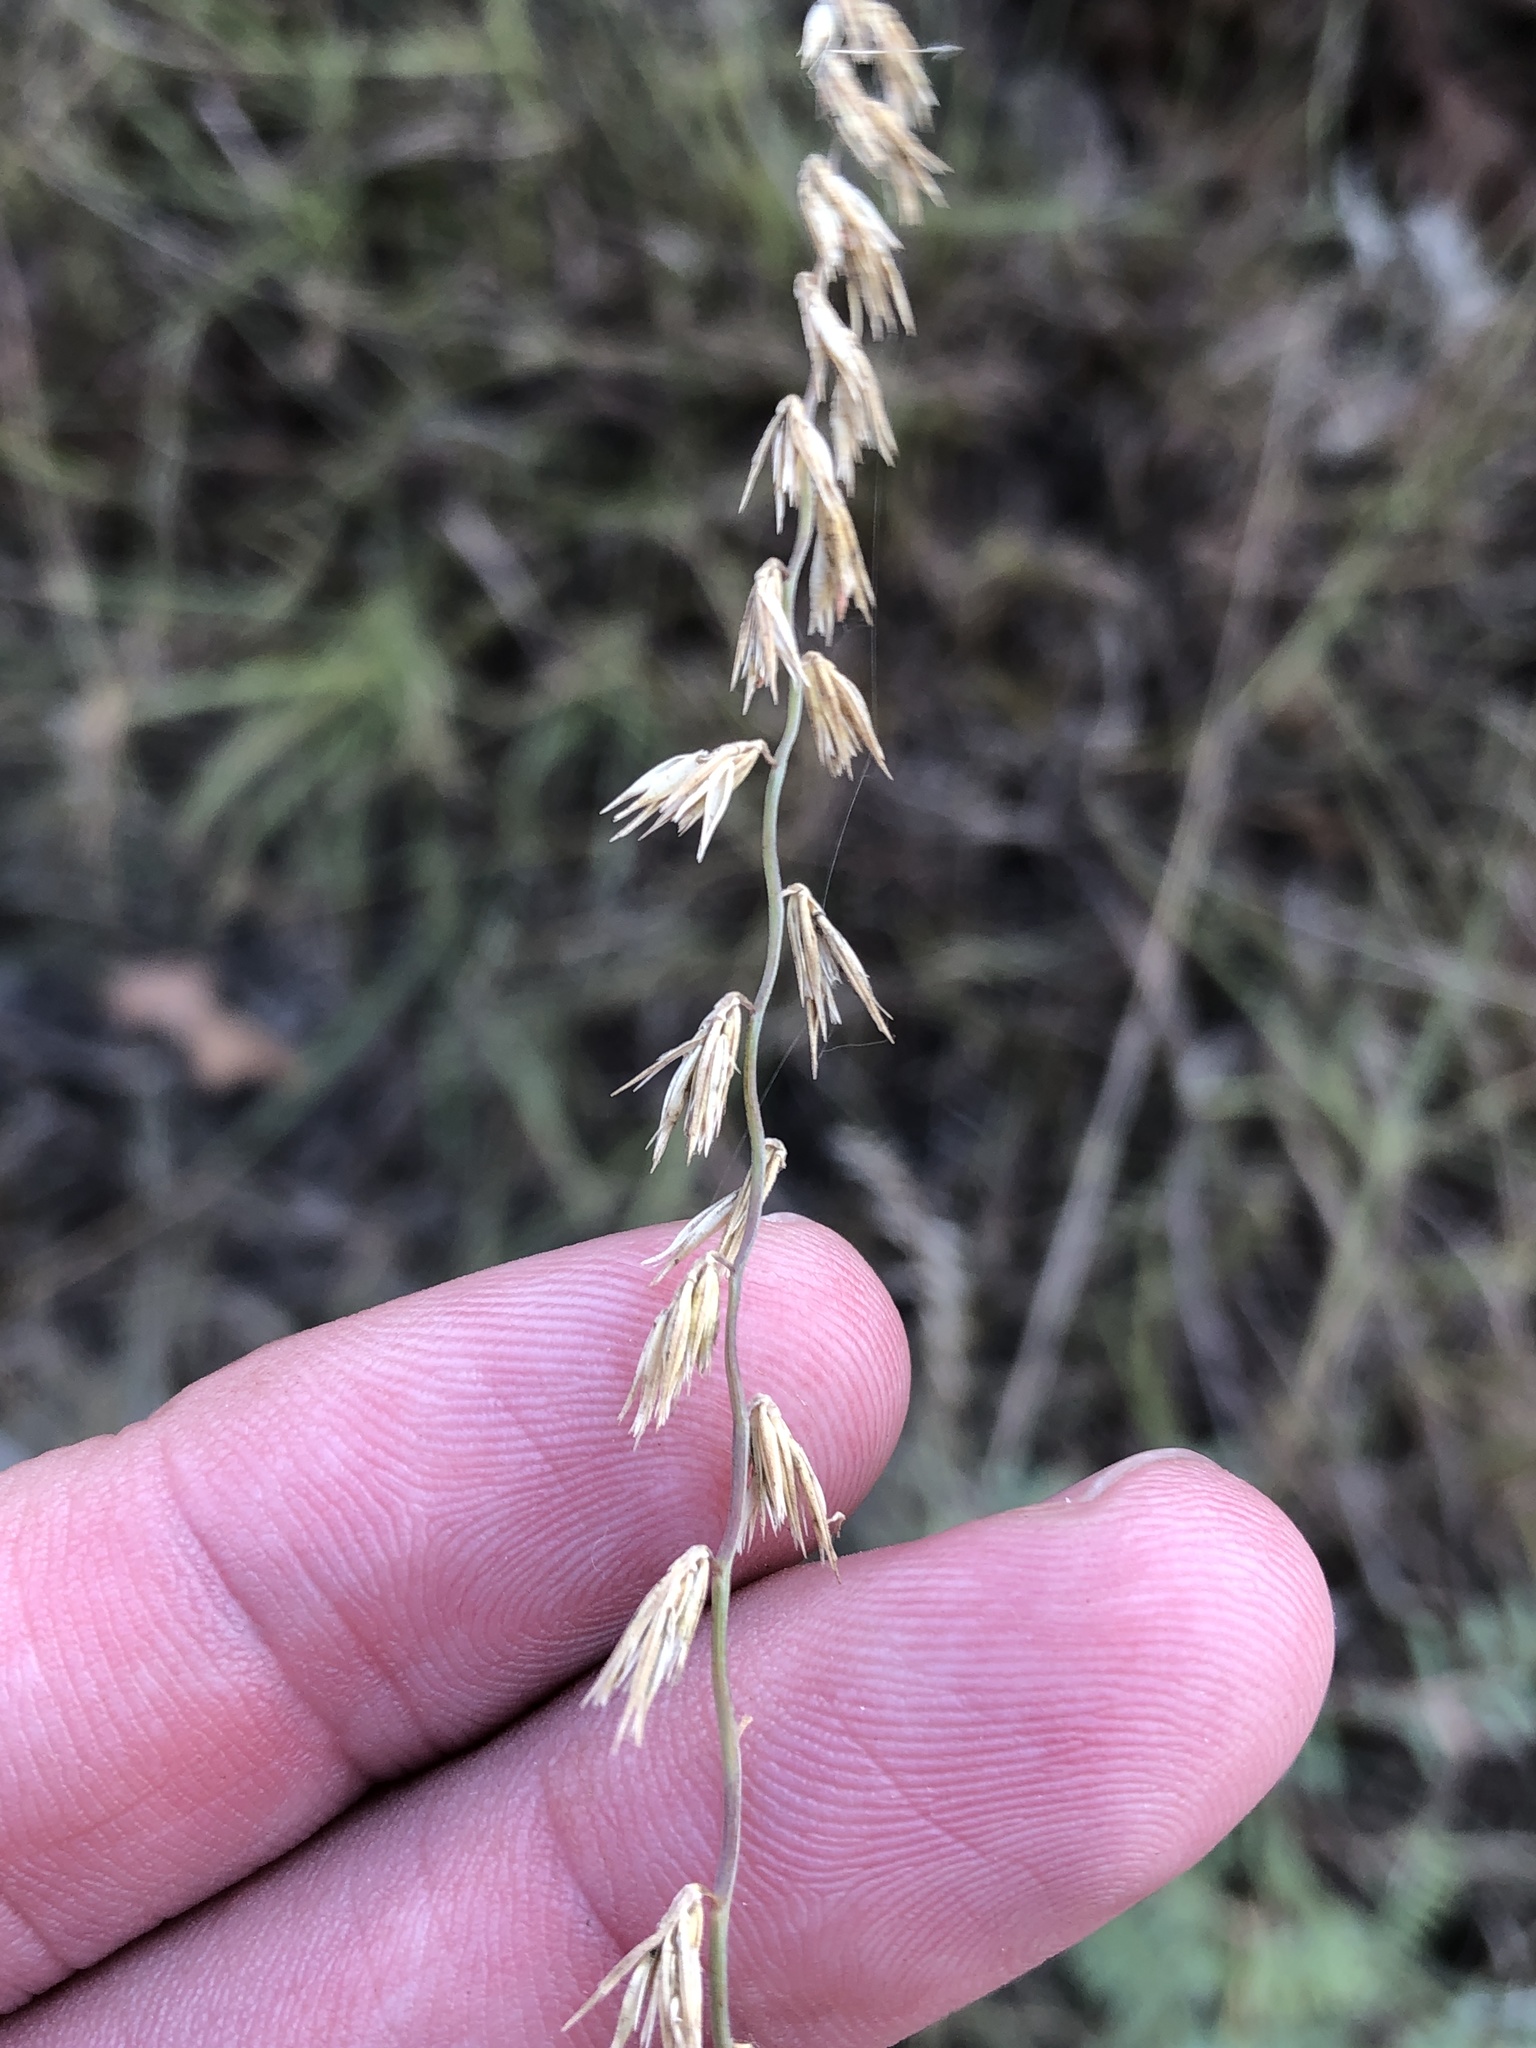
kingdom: Plantae
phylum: Tracheophyta
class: Liliopsida
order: Poales
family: Poaceae
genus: Bouteloua
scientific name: Bouteloua curtipendula
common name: Side-oats grama
